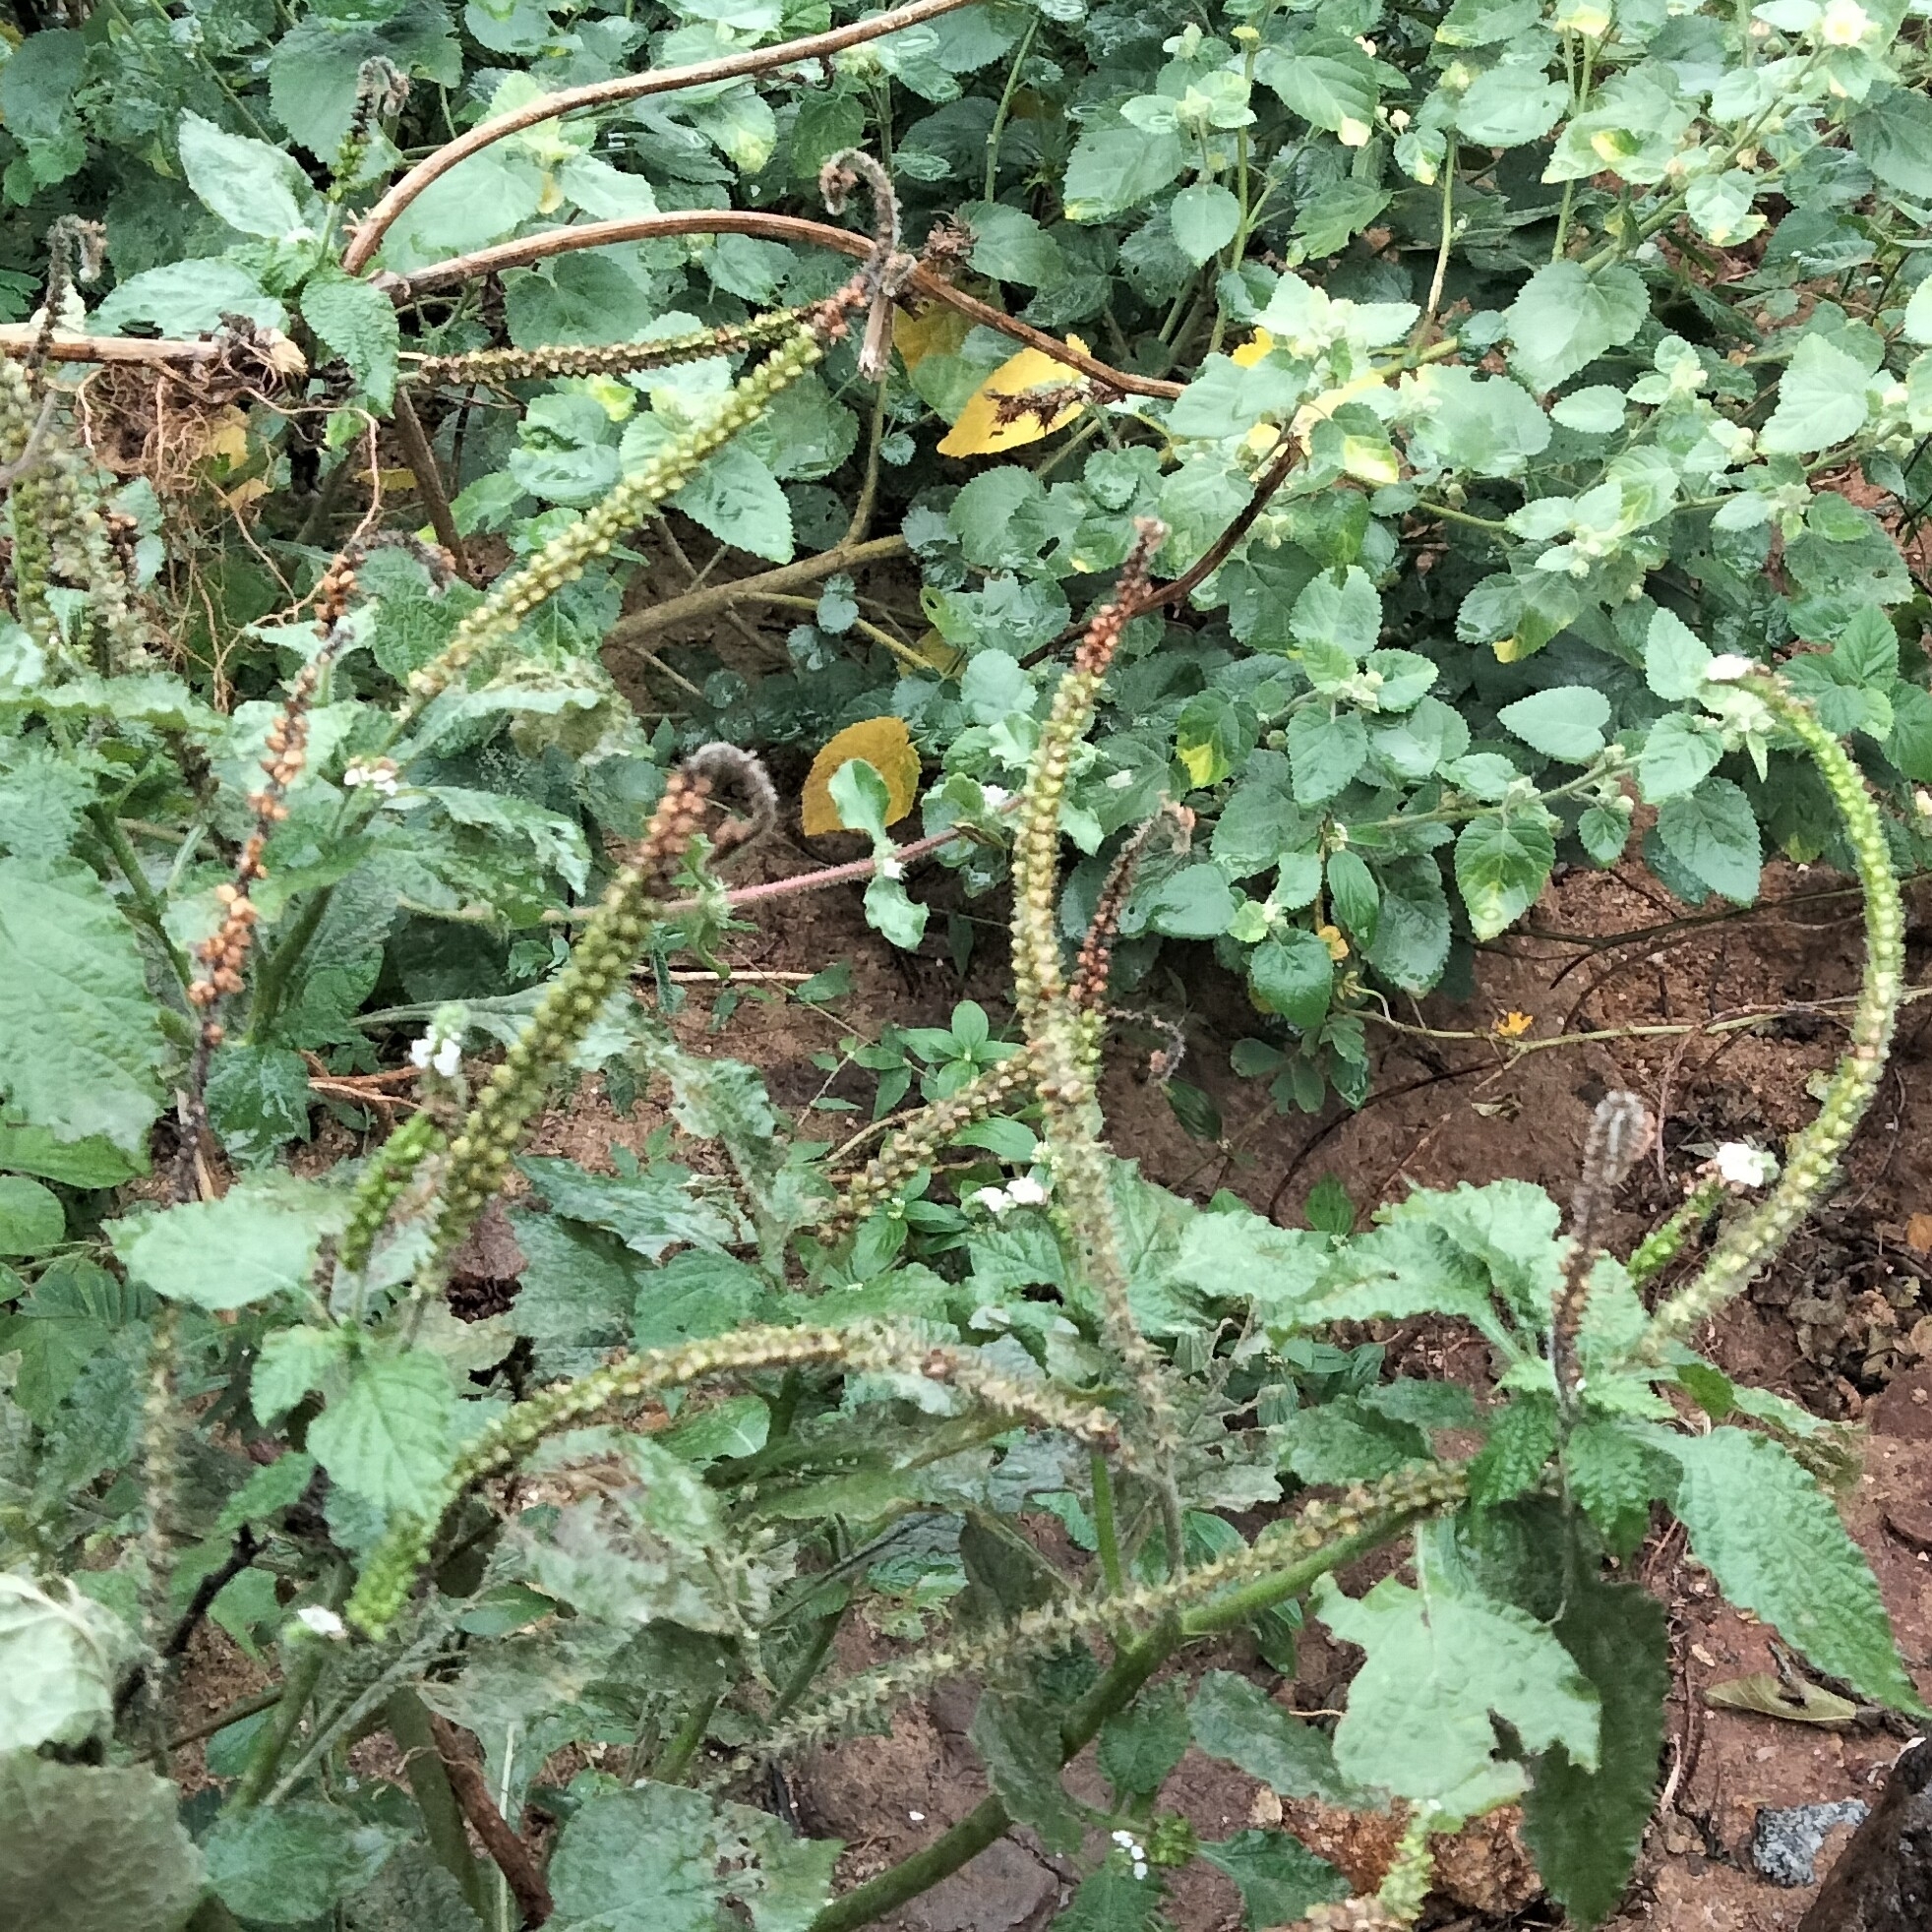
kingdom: Plantae
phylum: Tracheophyta
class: Magnoliopsida
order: Boraginales
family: Heliotropiaceae
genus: Heliotropium
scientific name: Heliotropium indicum
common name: Indian heliotrope
